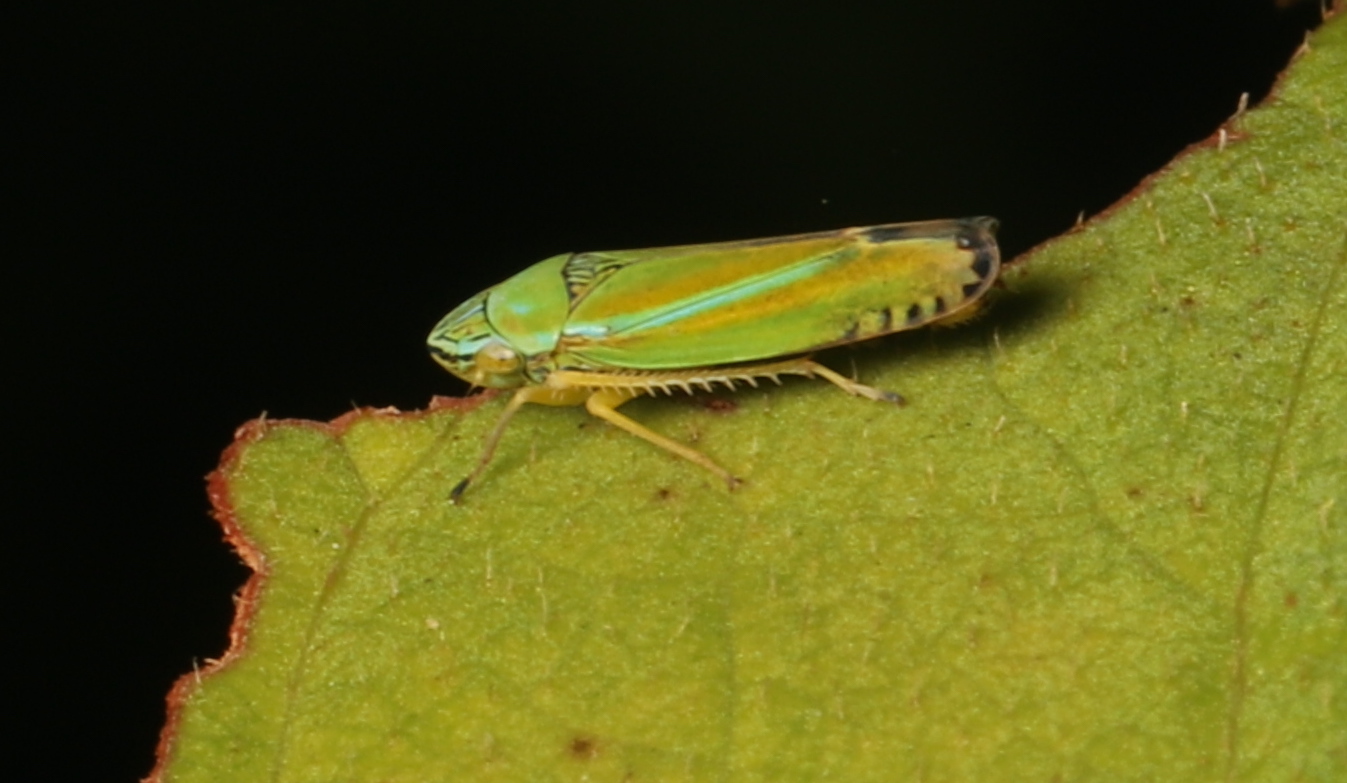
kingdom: Animalia
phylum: Arthropoda
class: Insecta
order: Hemiptera
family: Cicadellidae
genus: Graphocephala
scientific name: Graphocephala versuta
